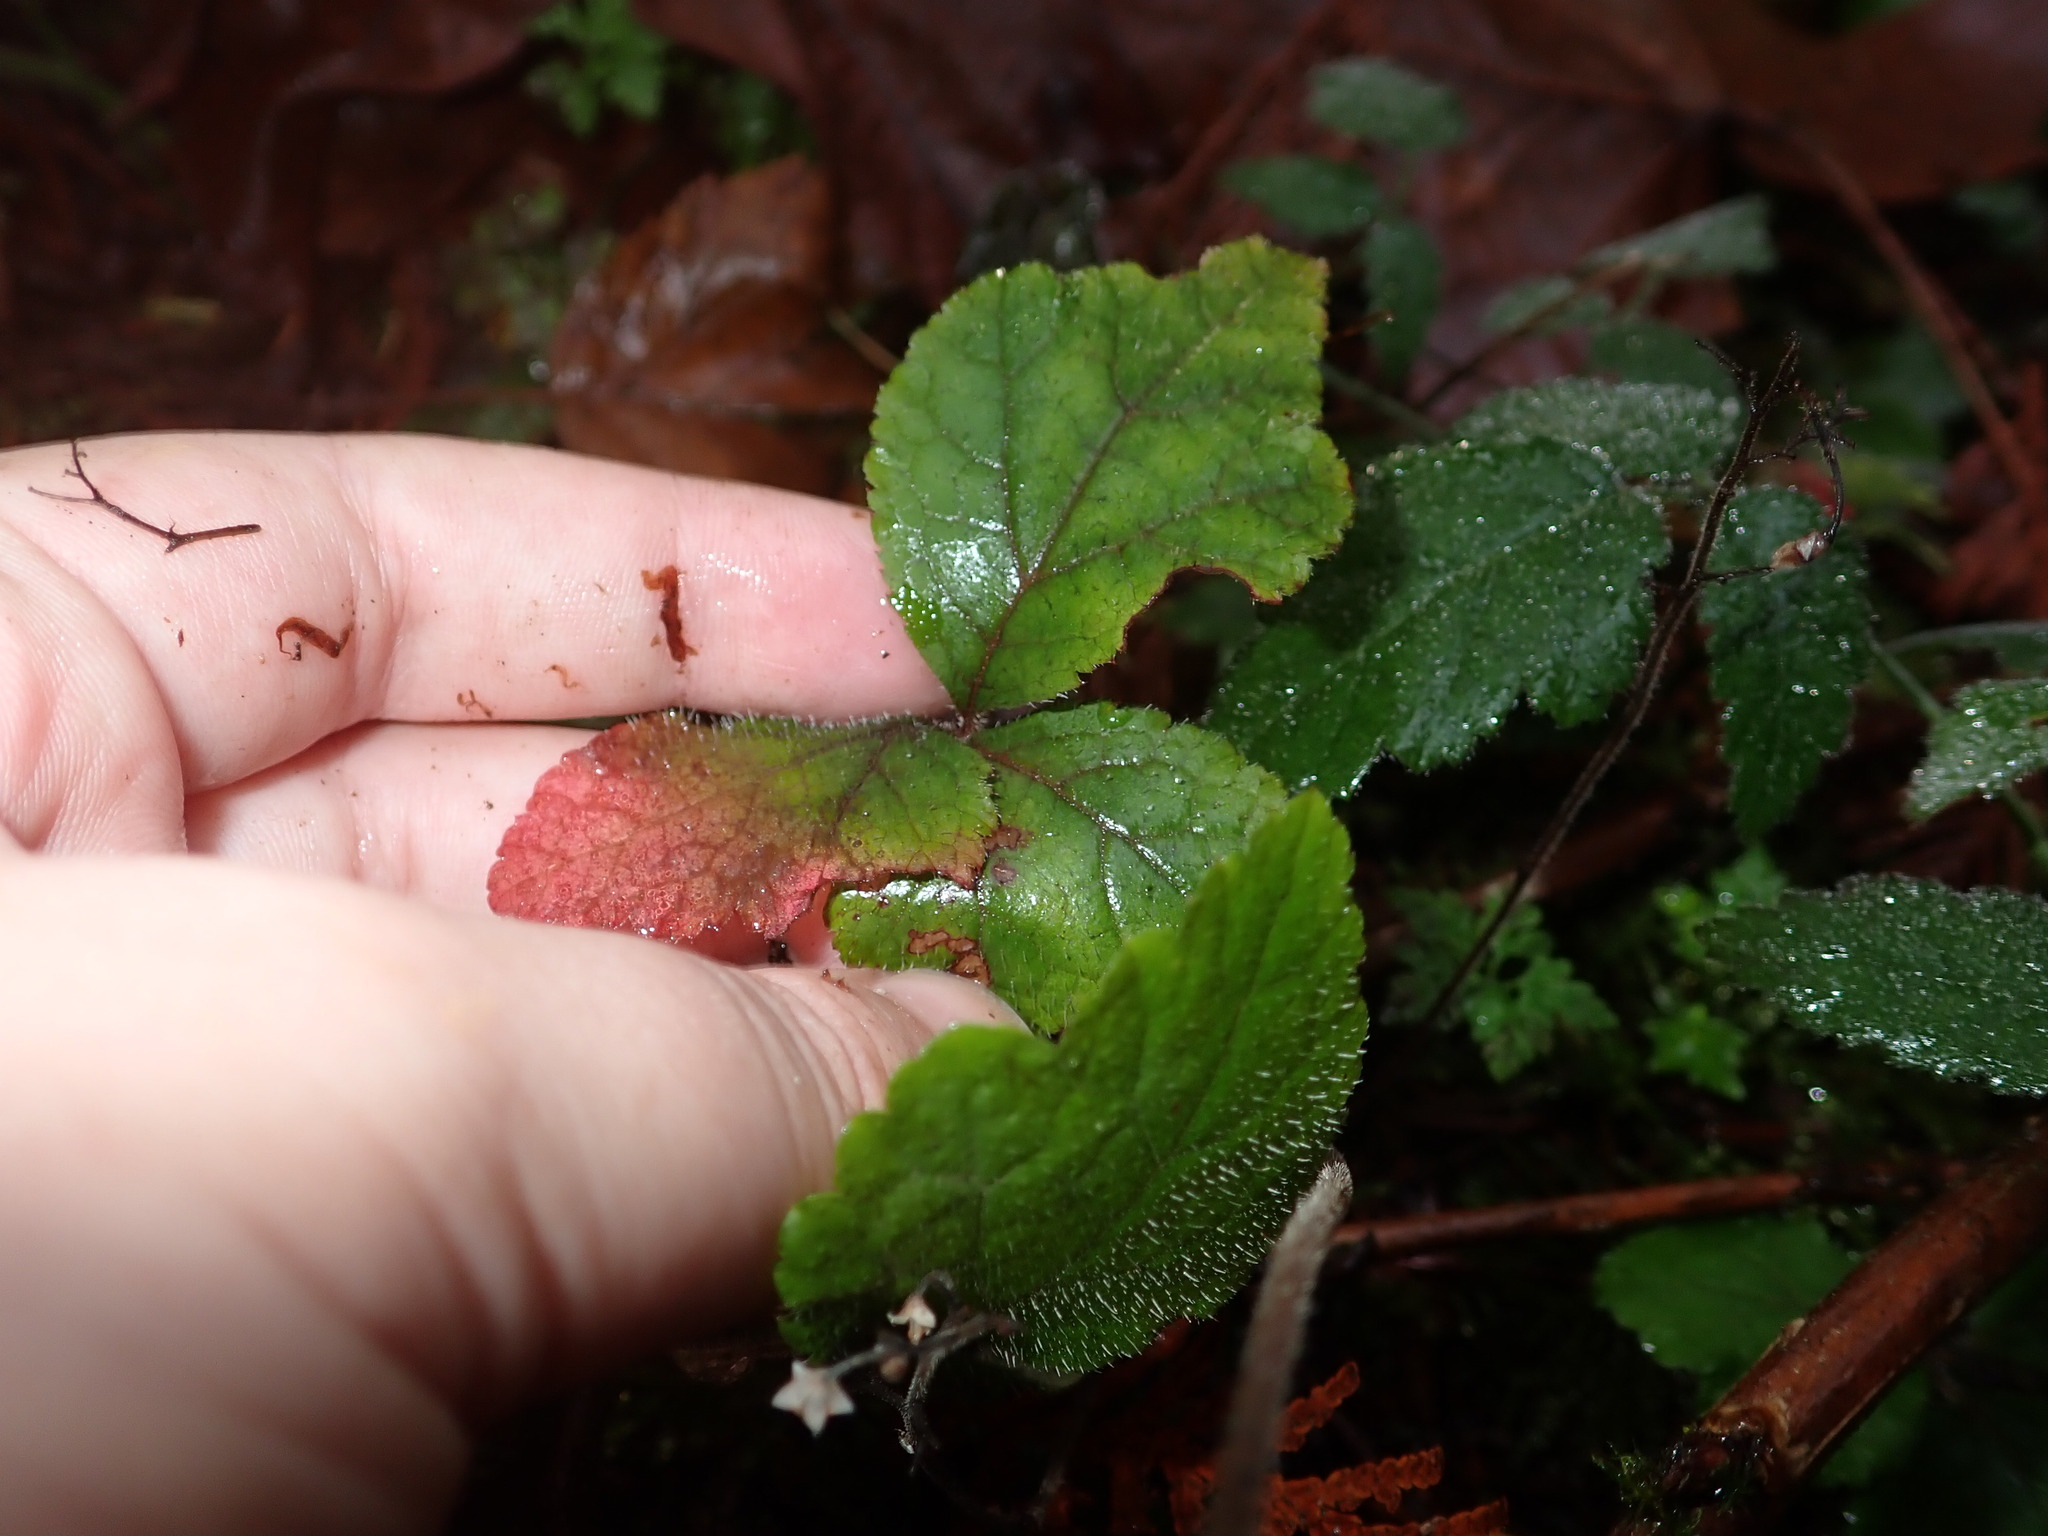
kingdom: Plantae
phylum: Tracheophyta
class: Magnoliopsida
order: Saxifragales
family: Saxifragaceae
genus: Tiarella
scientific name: Tiarella trifoliata
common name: Sugar-scoop
